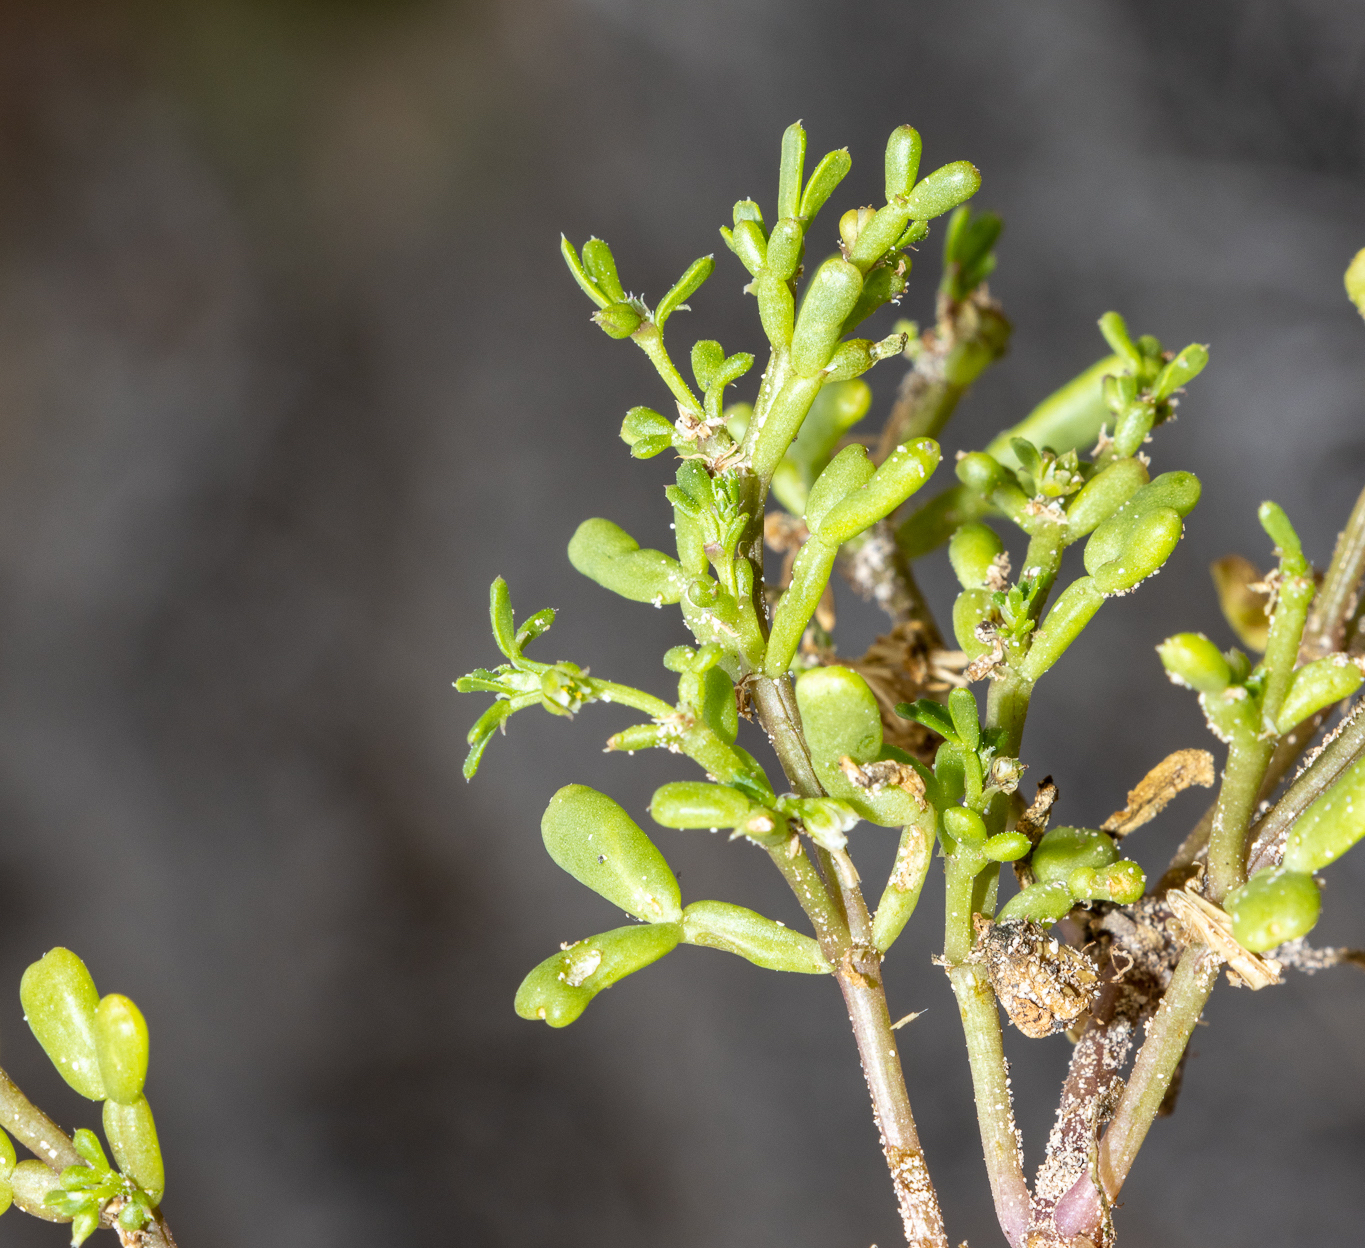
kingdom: Plantae
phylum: Tracheophyta
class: Magnoliopsida
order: Zygophyllales
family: Zygophyllaceae
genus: Roepera
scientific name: Roepera ammophila
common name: Sand twinleaf
